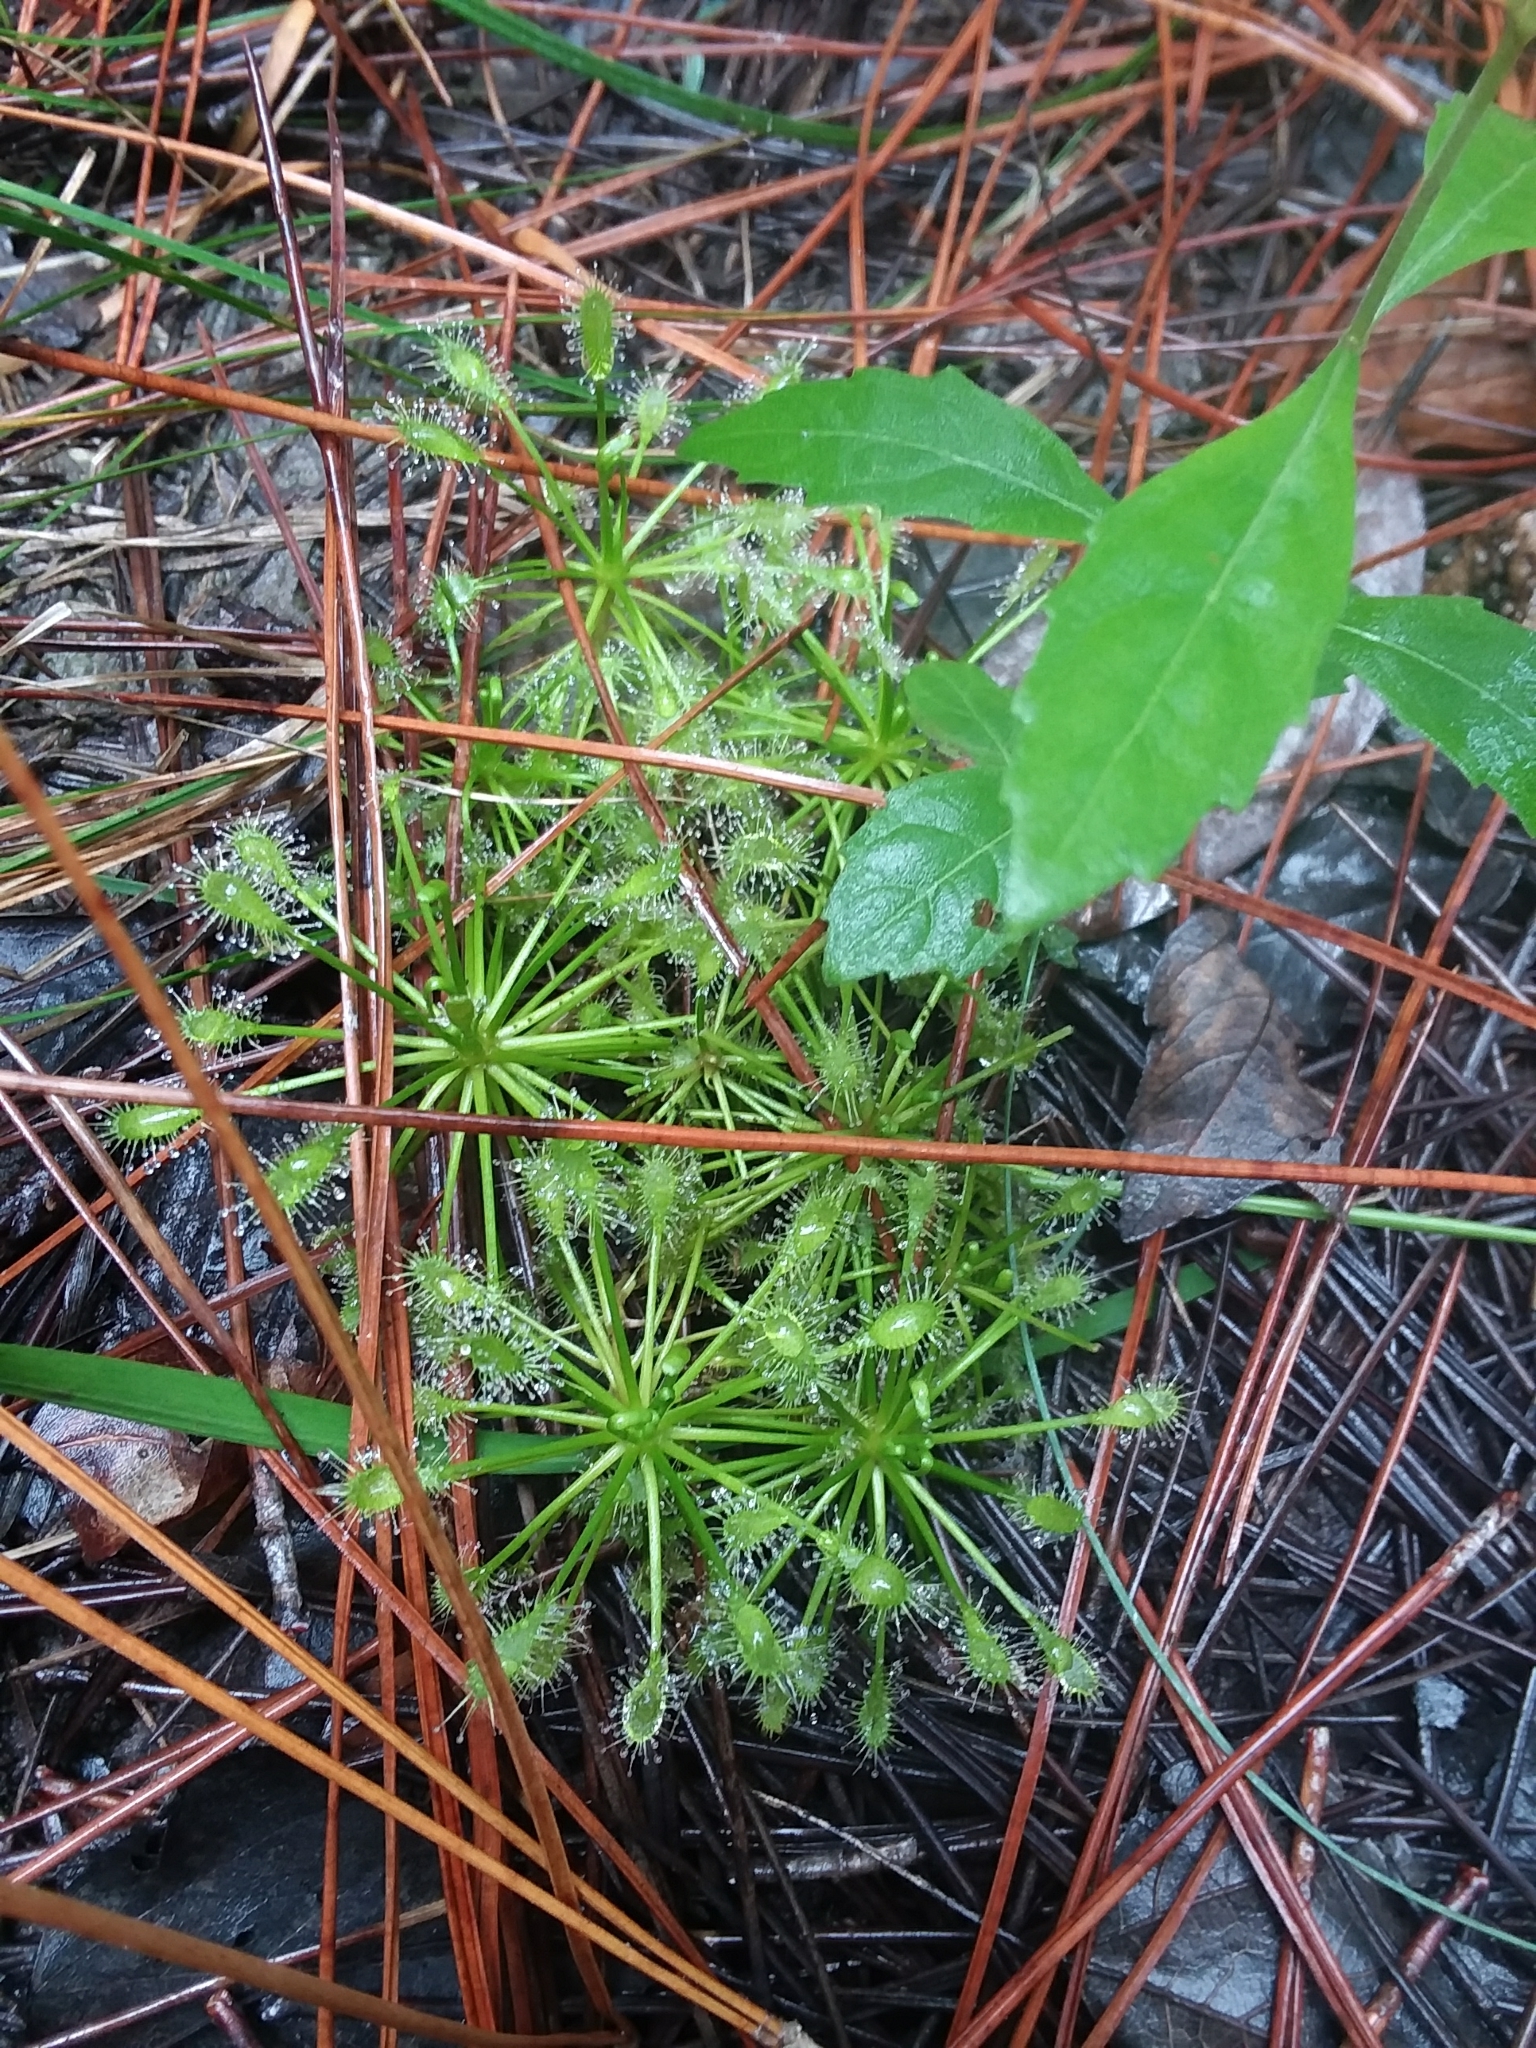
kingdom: Plantae
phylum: Tracheophyta
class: Magnoliopsida
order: Caryophyllales
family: Droseraceae
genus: Drosera
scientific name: Drosera intermedia
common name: Oblong-leaved sundew
